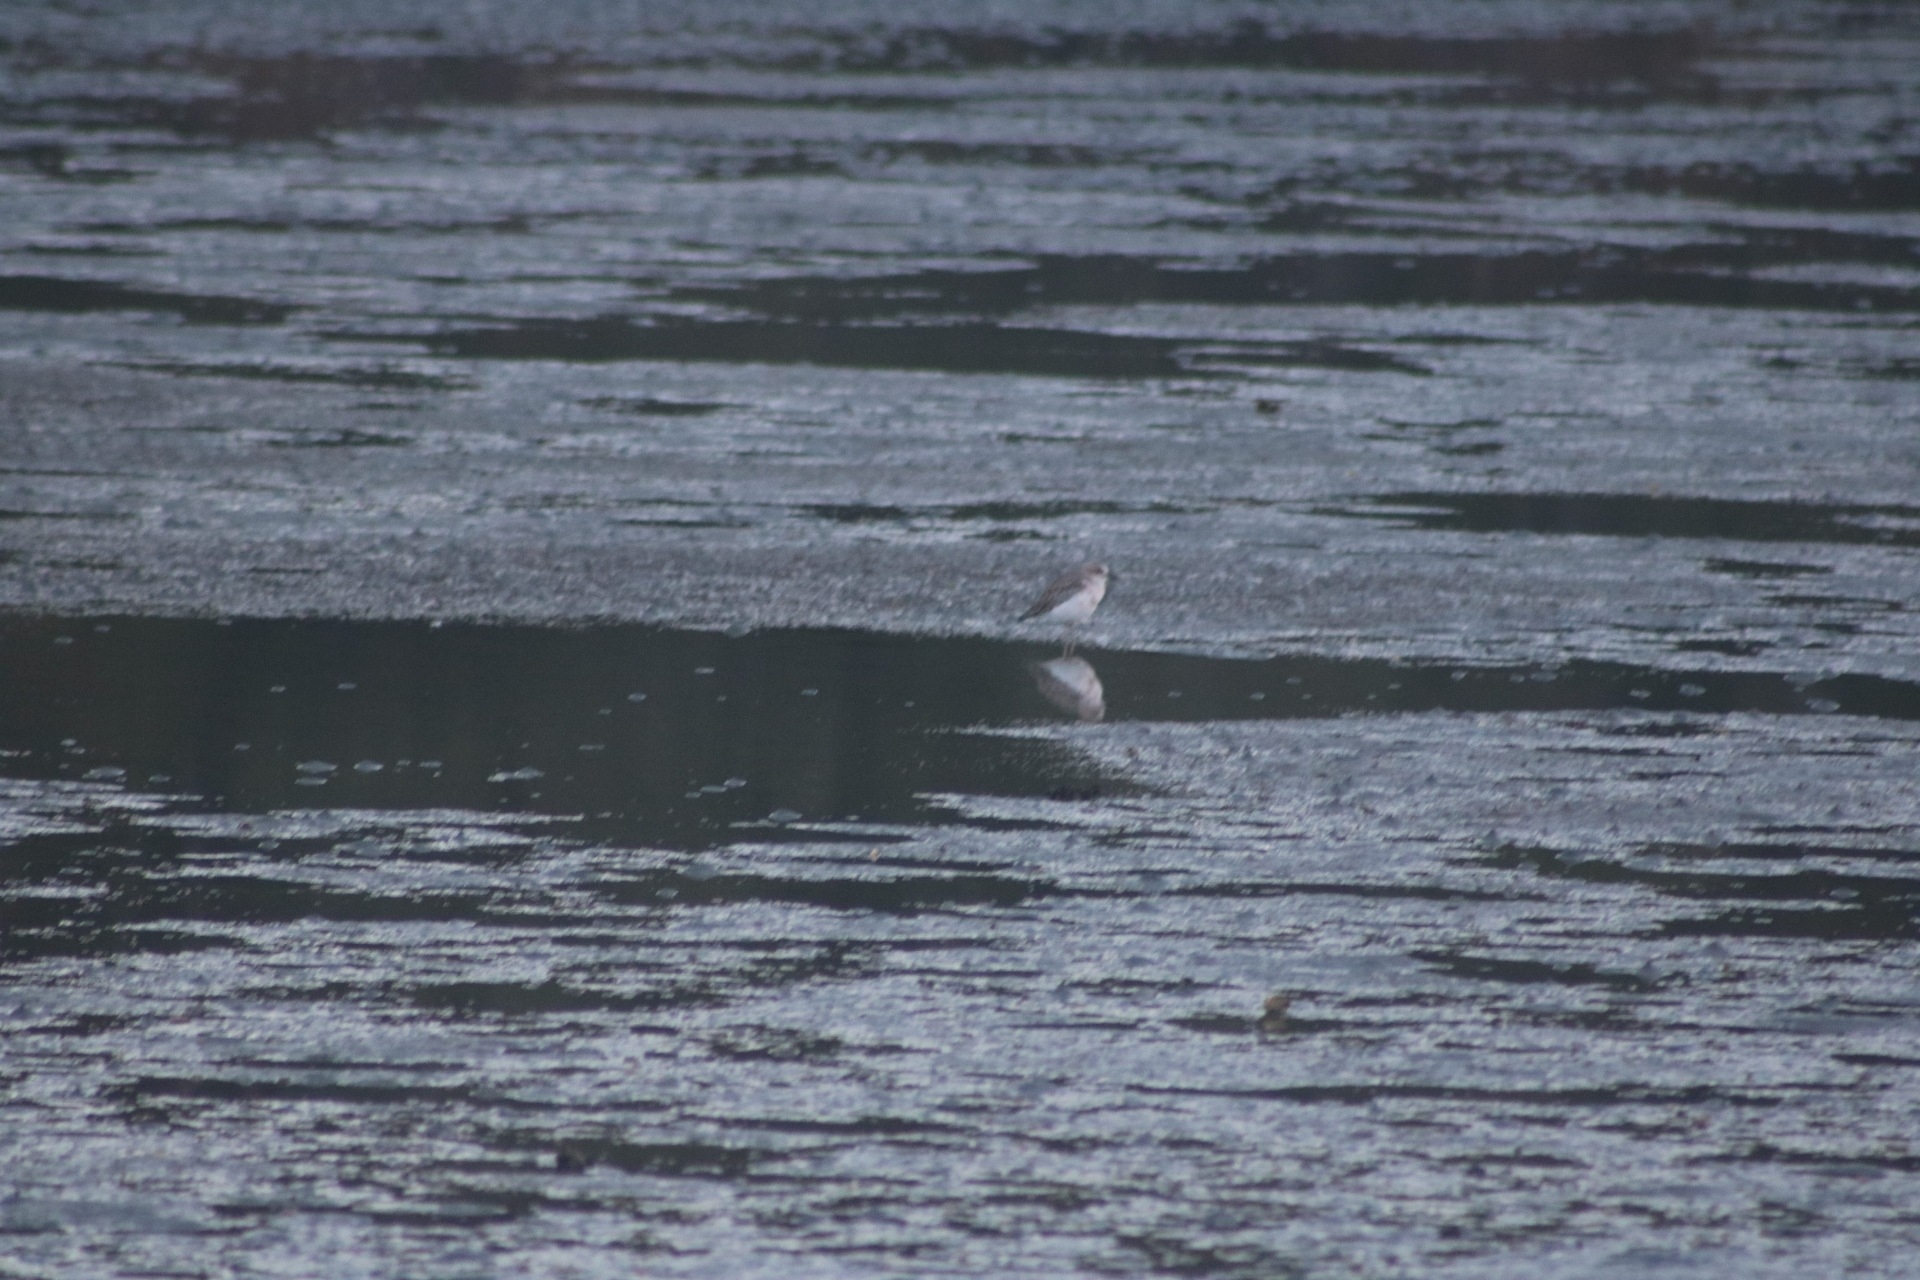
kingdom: Animalia
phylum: Chordata
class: Aves
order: Charadriiformes
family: Charadriidae
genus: Anarhynchus
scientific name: Anarhynchus
